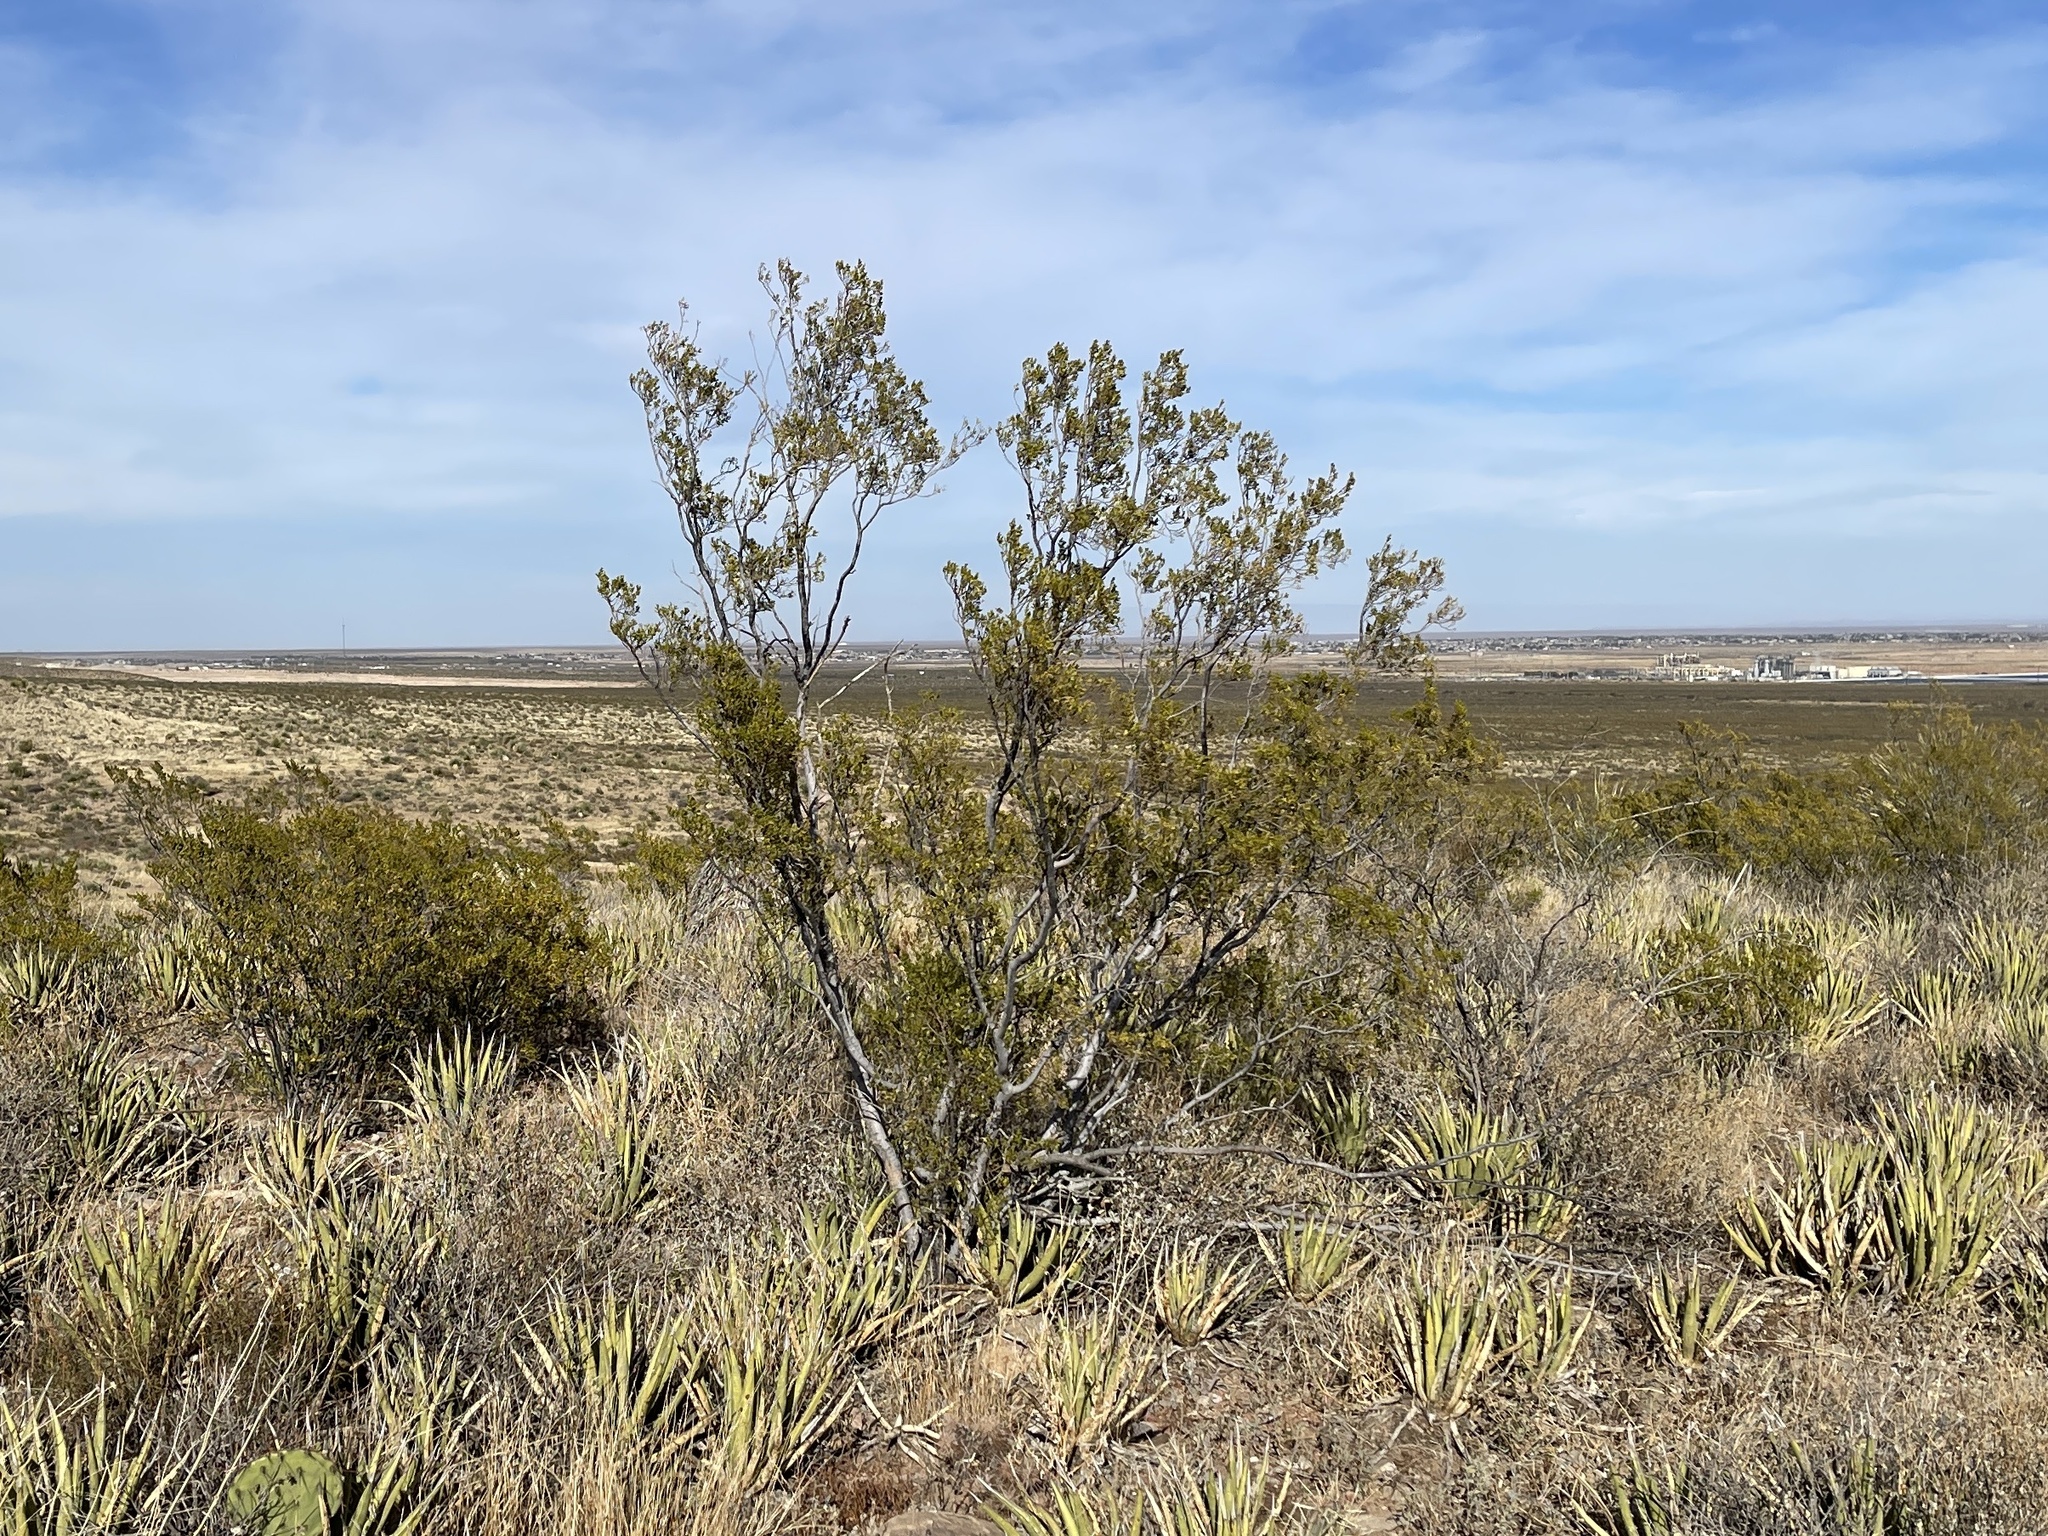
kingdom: Plantae
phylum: Tracheophyta
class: Magnoliopsida
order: Zygophyllales
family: Zygophyllaceae
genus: Larrea
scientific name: Larrea tridentata
